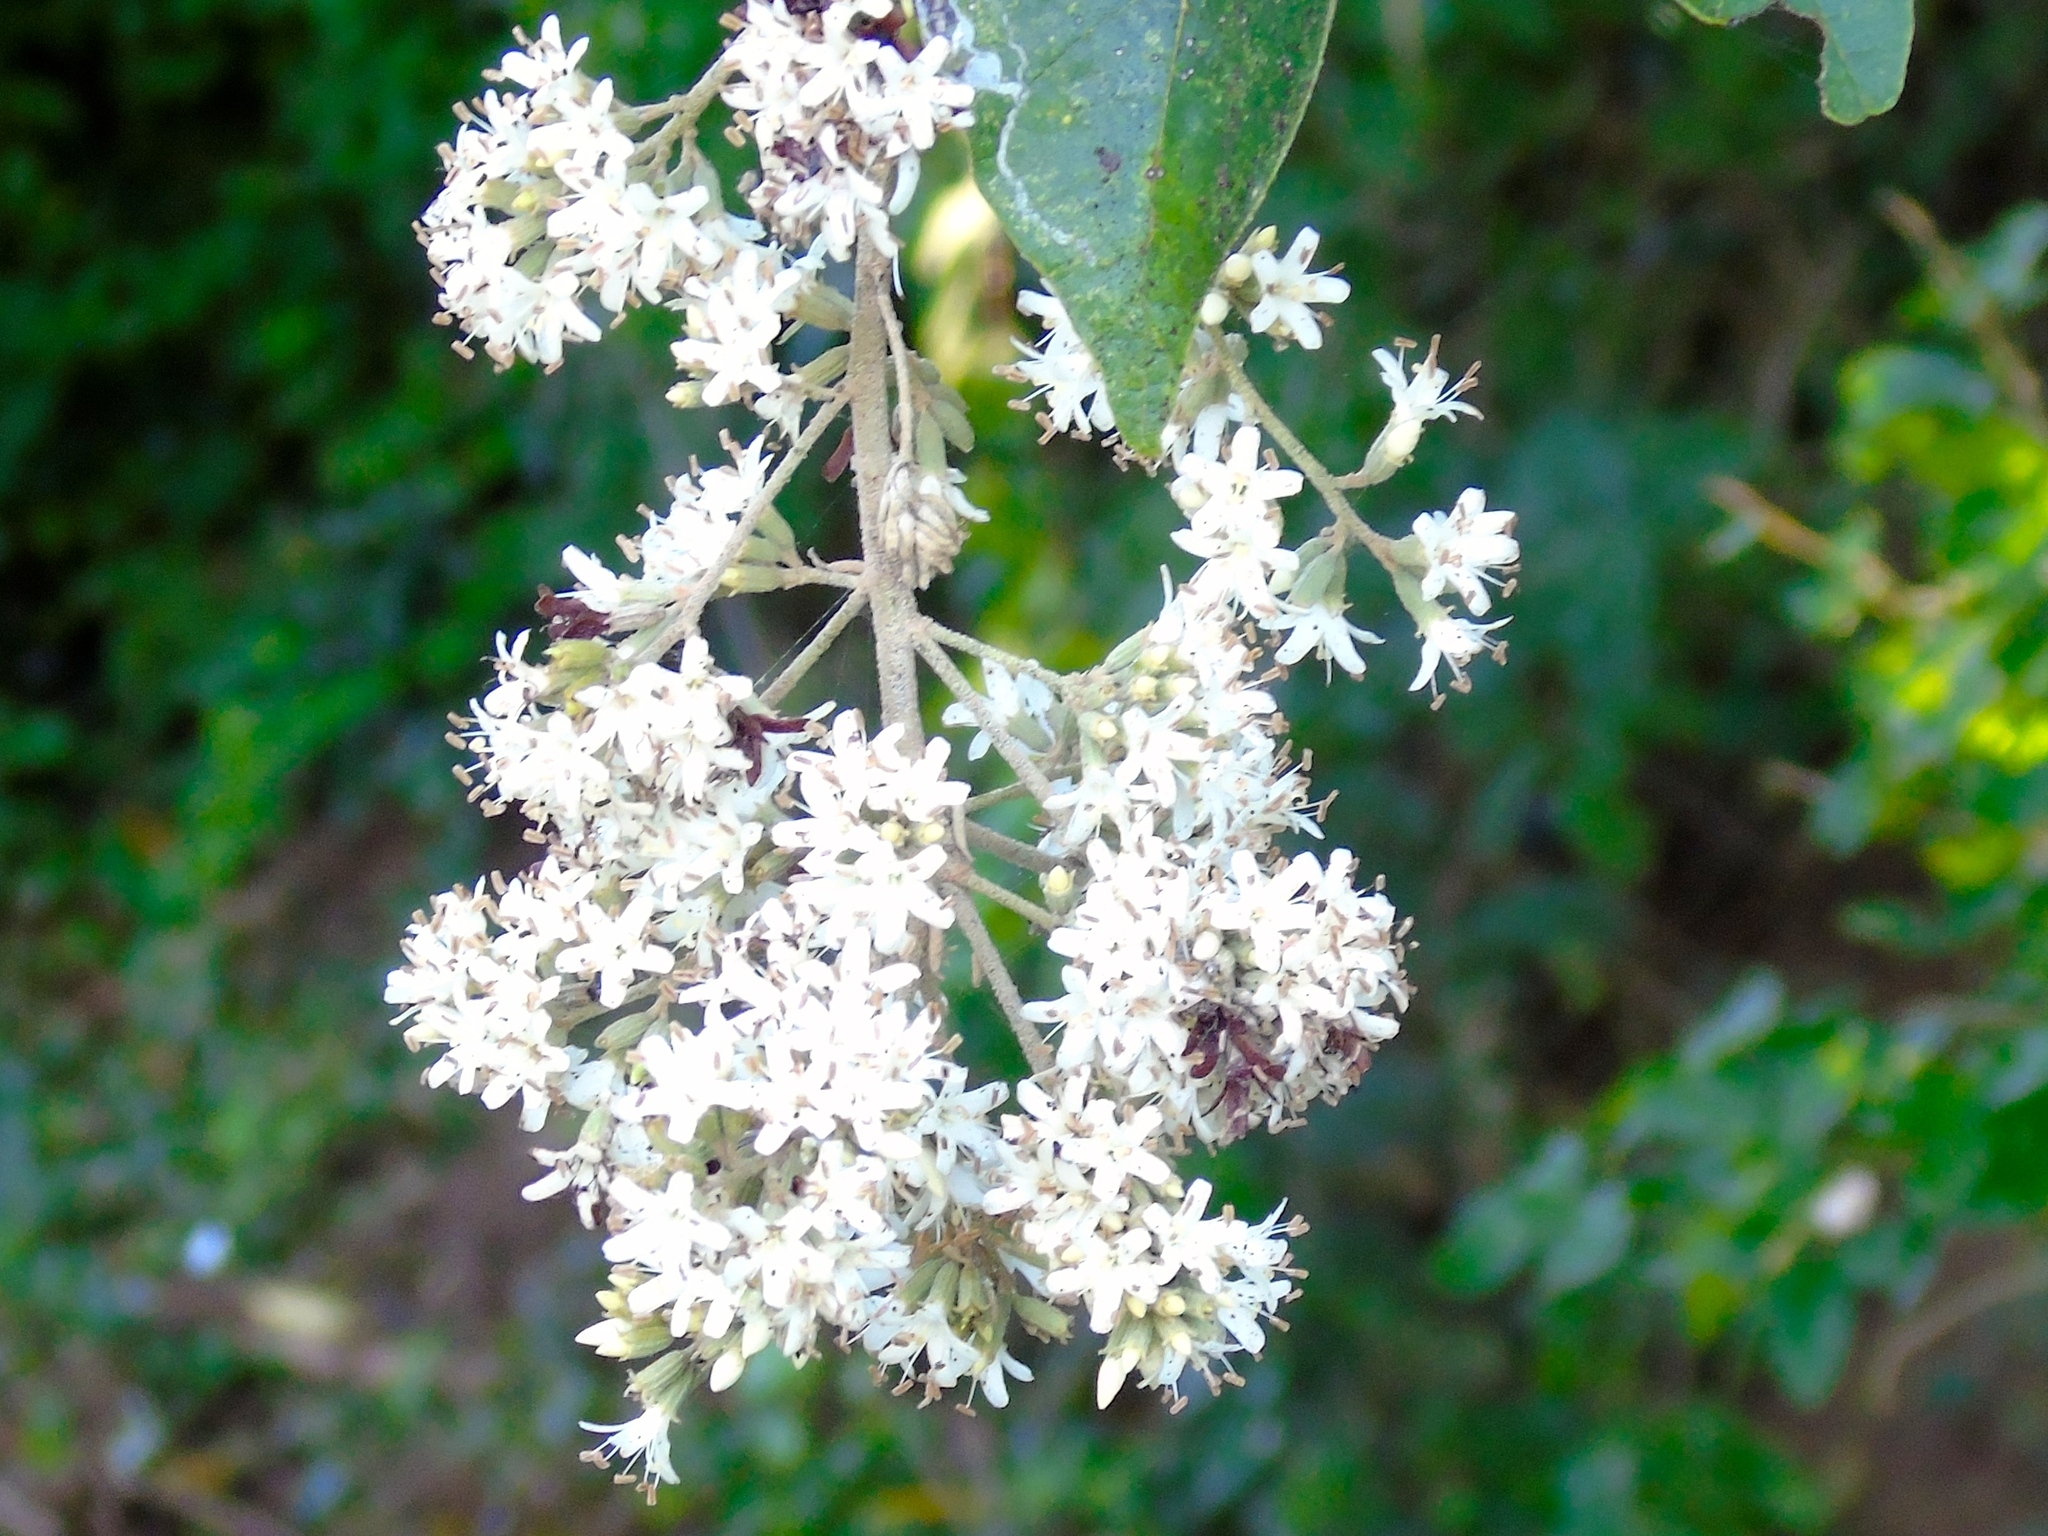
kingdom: Plantae
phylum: Tracheophyta
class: Magnoliopsida
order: Boraginales
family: Cordiaceae
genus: Cordia
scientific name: Cordia alliodora
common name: Spanish elm
